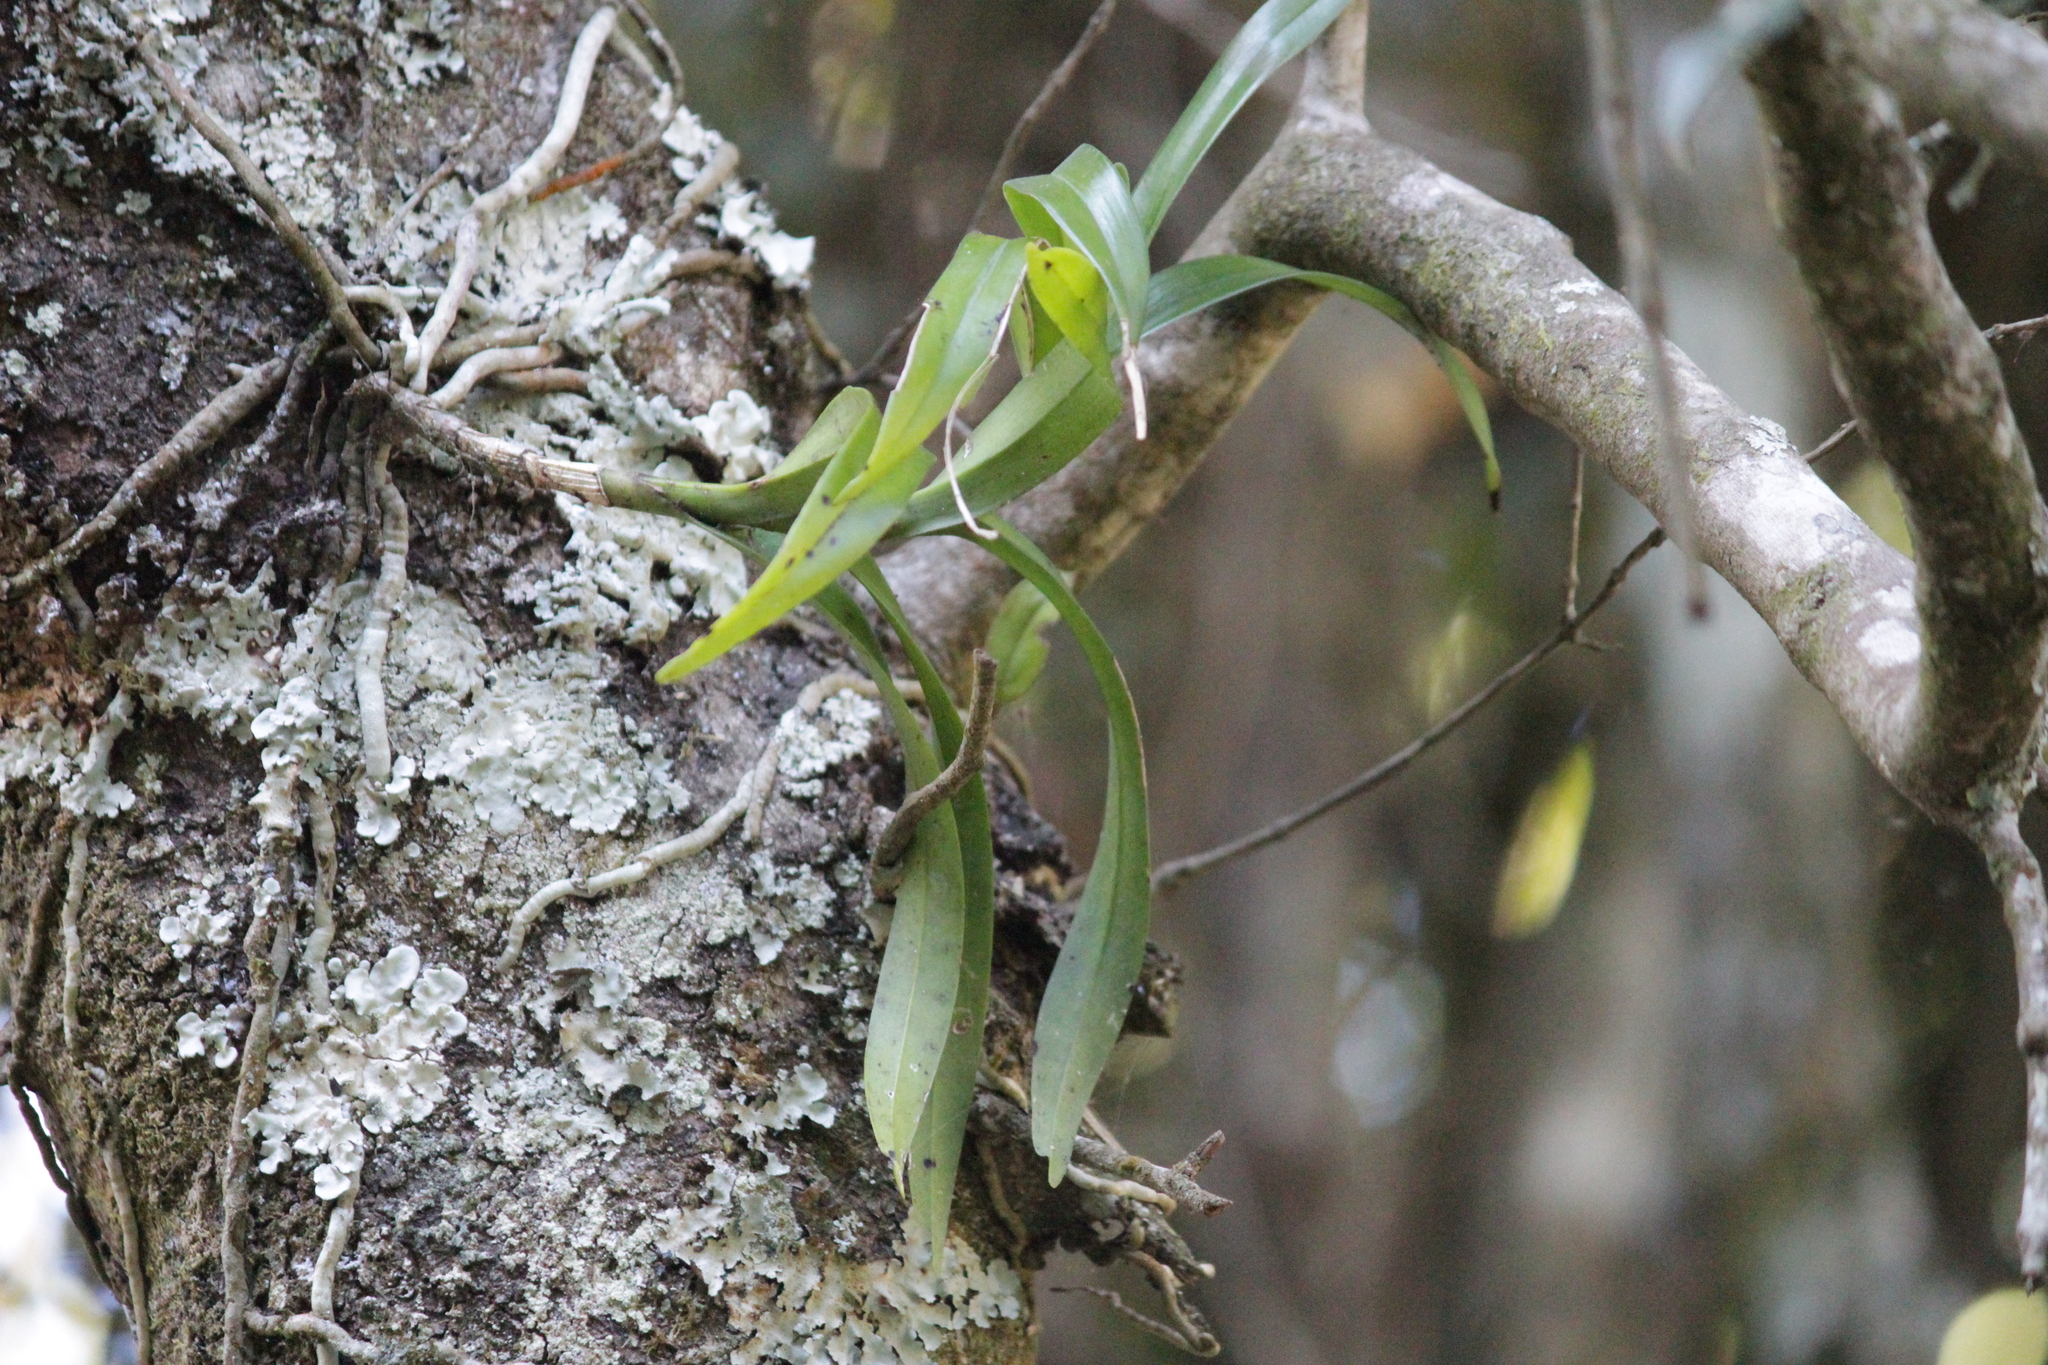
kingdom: Plantae
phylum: Tracheophyta
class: Liliopsida
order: Asparagales
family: Orchidaceae
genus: Tridactyle
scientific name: Tridactyle bicaudata
